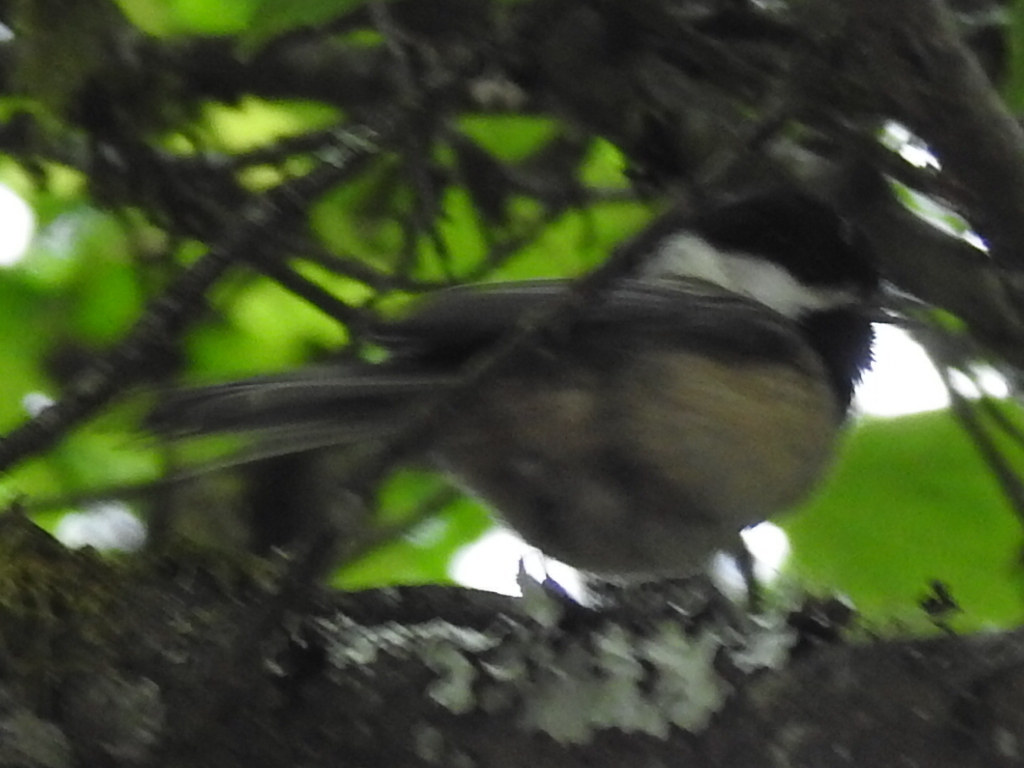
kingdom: Animalia
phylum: Chordata
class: Aves
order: Passeriformes
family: Paridae
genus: Poecile
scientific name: Poecile atricapillus
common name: Black-capped chickadee
